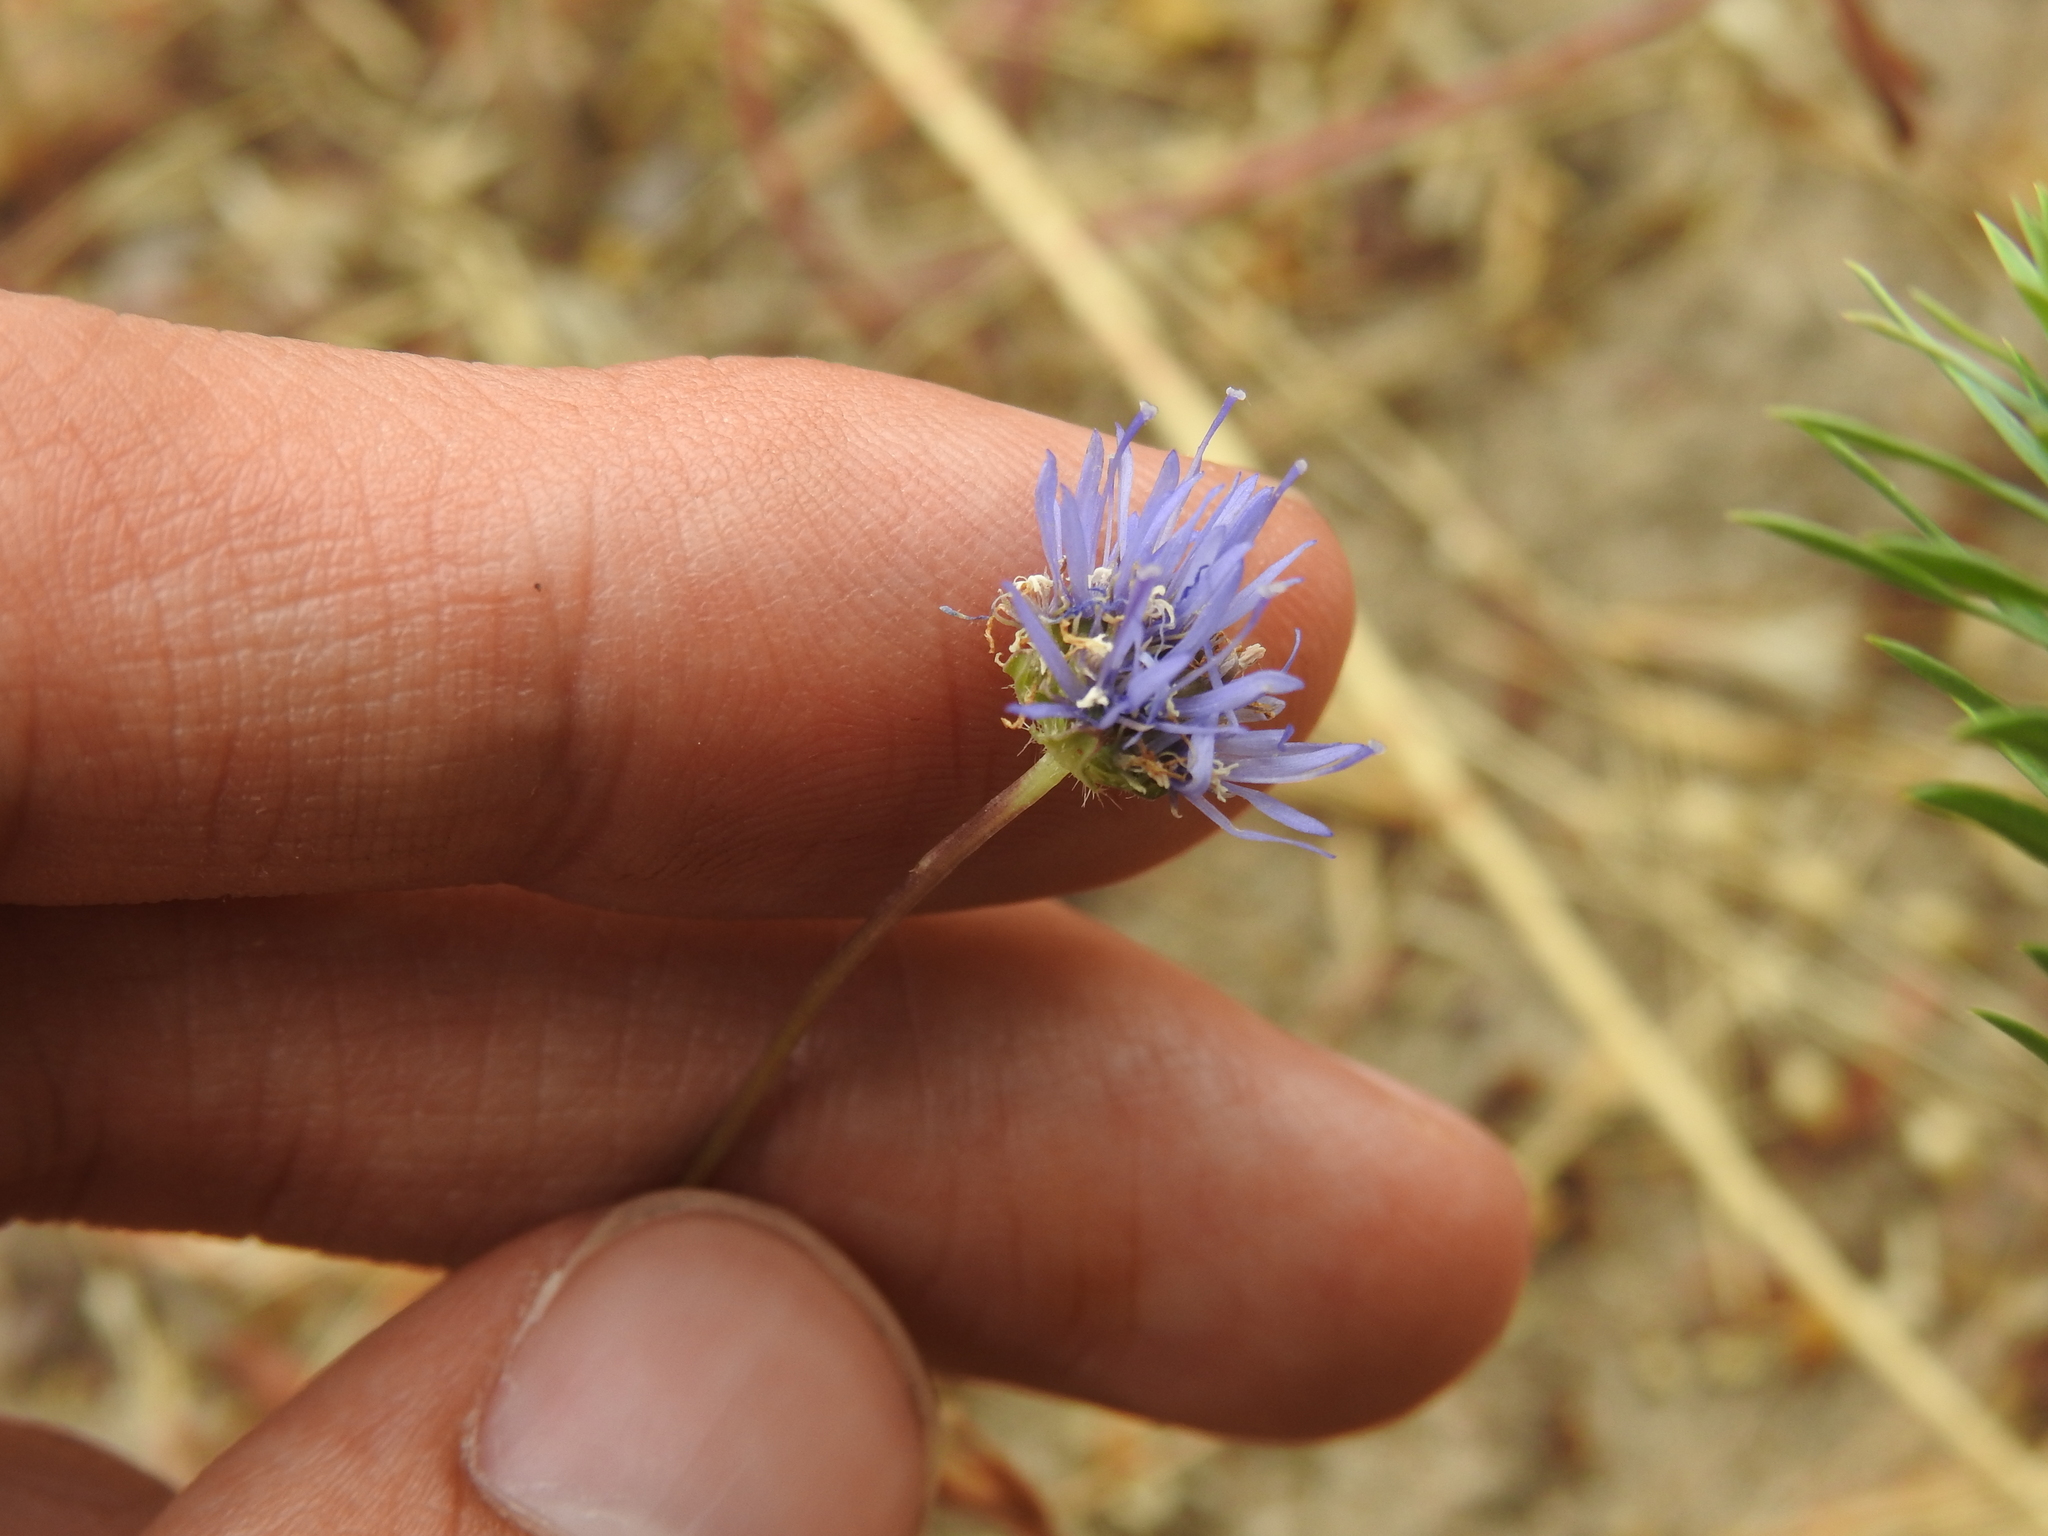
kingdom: Plantae
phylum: Tracheophyta
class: Magnoliopsida
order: Asterales
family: Campanulaceae
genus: Jasione
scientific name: Jasione montana
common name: Sheep's-bit
